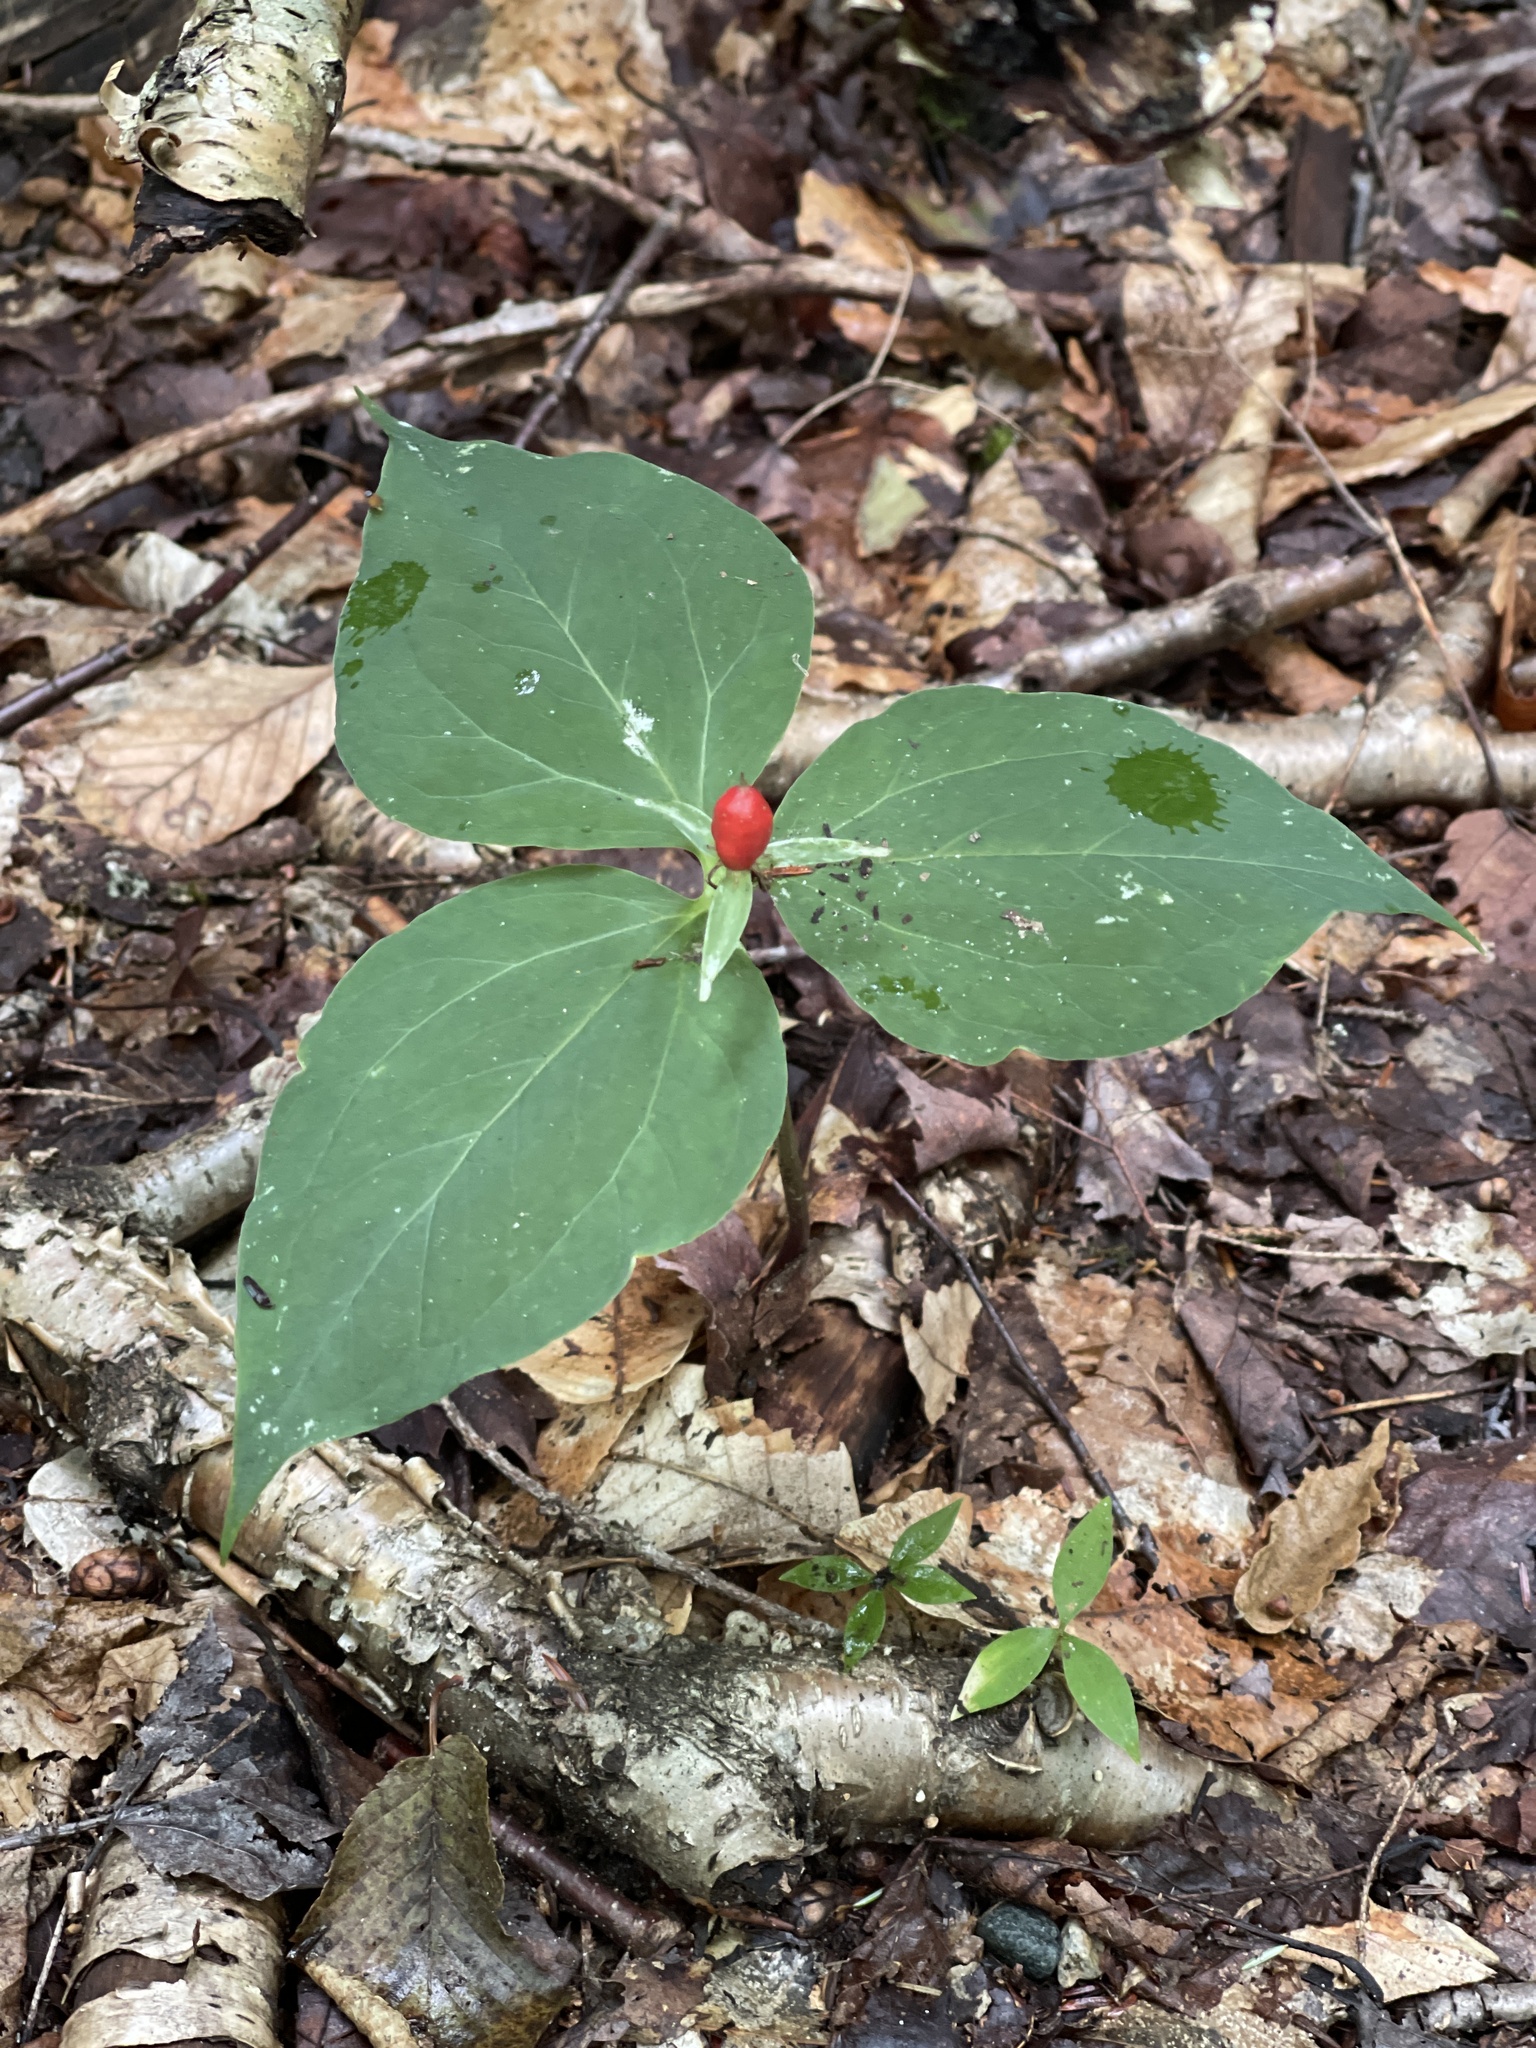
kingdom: Plantae
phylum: Tracheophyta
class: Liliopsida
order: Liliales
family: Melanthiaceae
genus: Trillium
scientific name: Trillium undulatum
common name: Paint trillium
